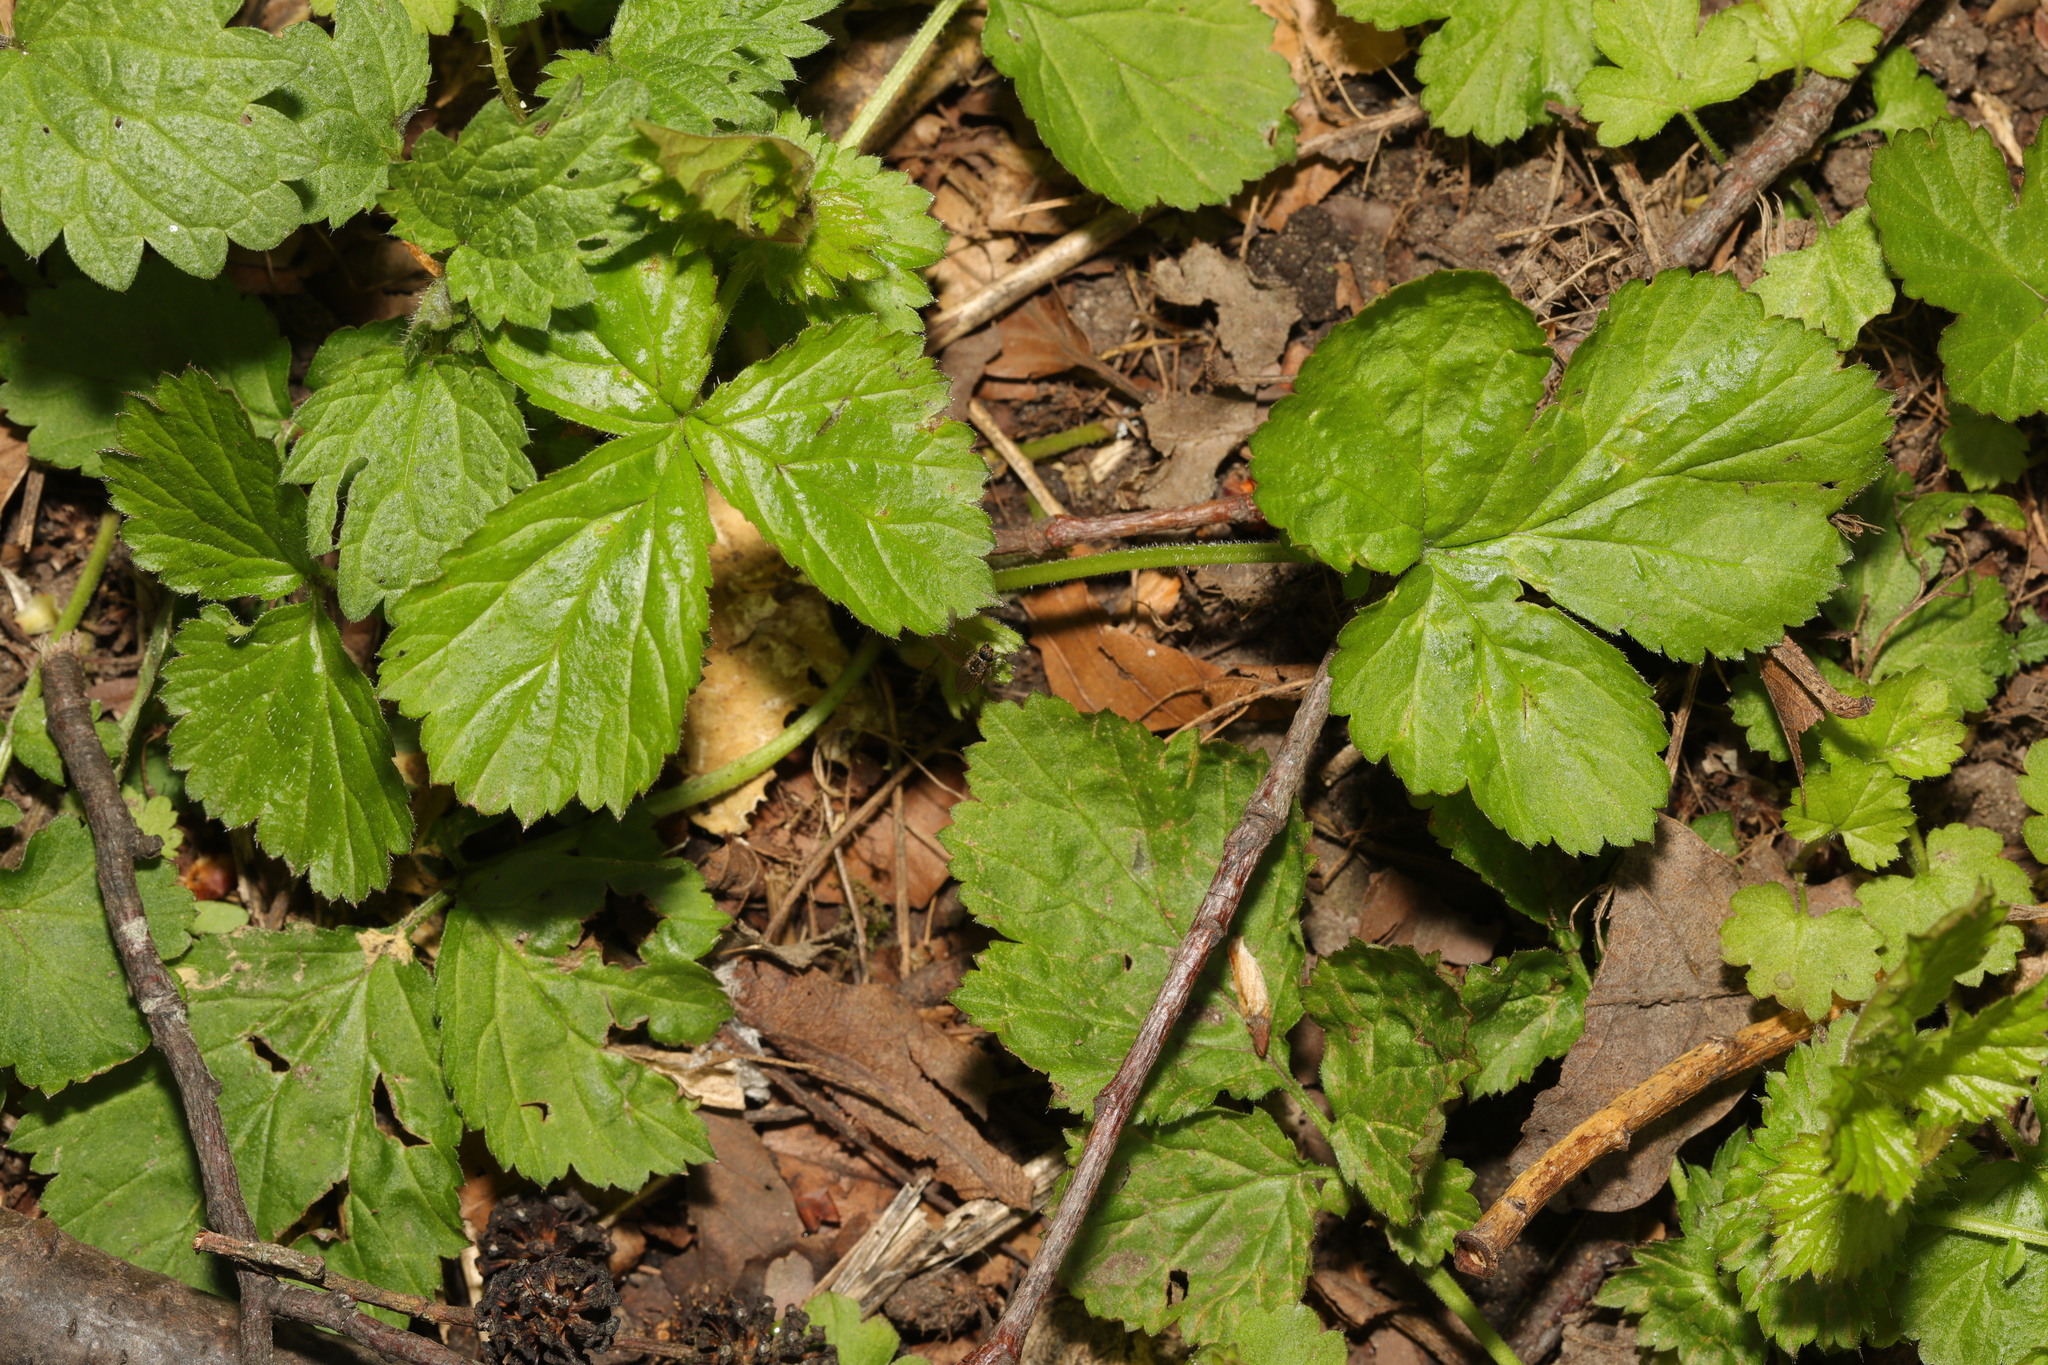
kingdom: Plantae
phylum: Tracheophyta
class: Magnoliopsida
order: Rosales
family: Rosaceae
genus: Geum
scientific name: Geum urbanum
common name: Wood avens
